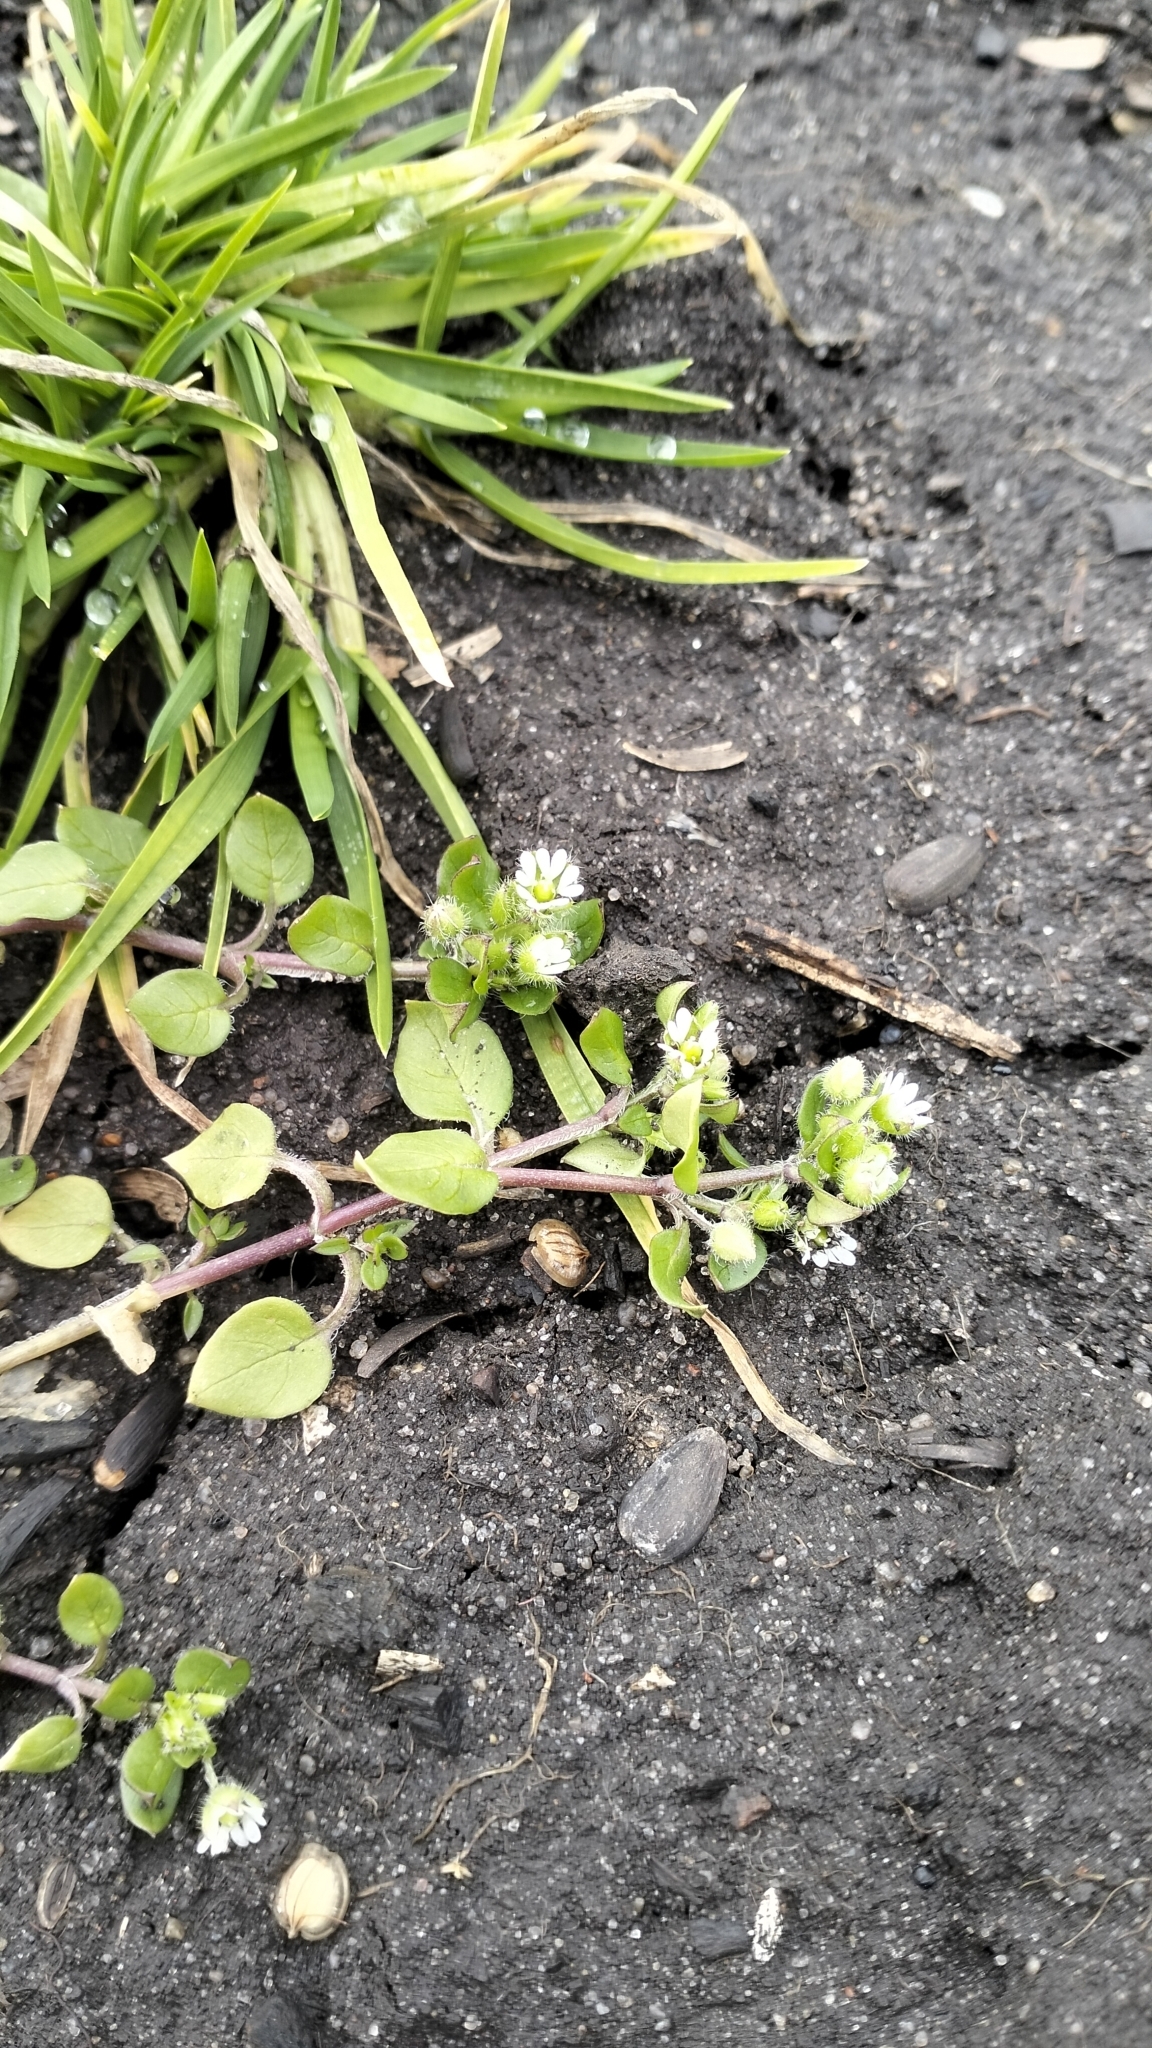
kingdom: Plantae
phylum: Tracheophyta
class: Magnoliopsida
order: Caryophyllales
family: Caryophyllaceae
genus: Stellaria
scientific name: Stellaria media
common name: Common chickweed
